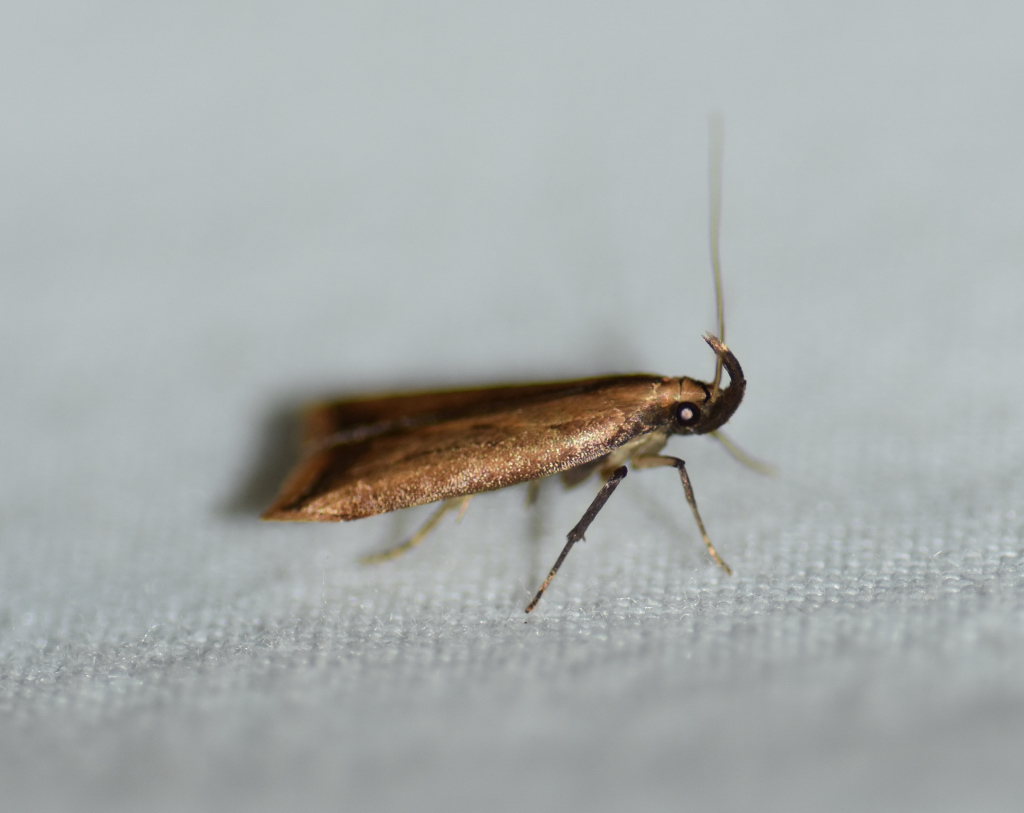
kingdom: Animalia
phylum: Arthropoda
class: Insecta
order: Lepidoptera
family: Gelechiidae
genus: Dichomeris
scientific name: Dichomeris heriguronis
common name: Black-edged dichomeris moth
